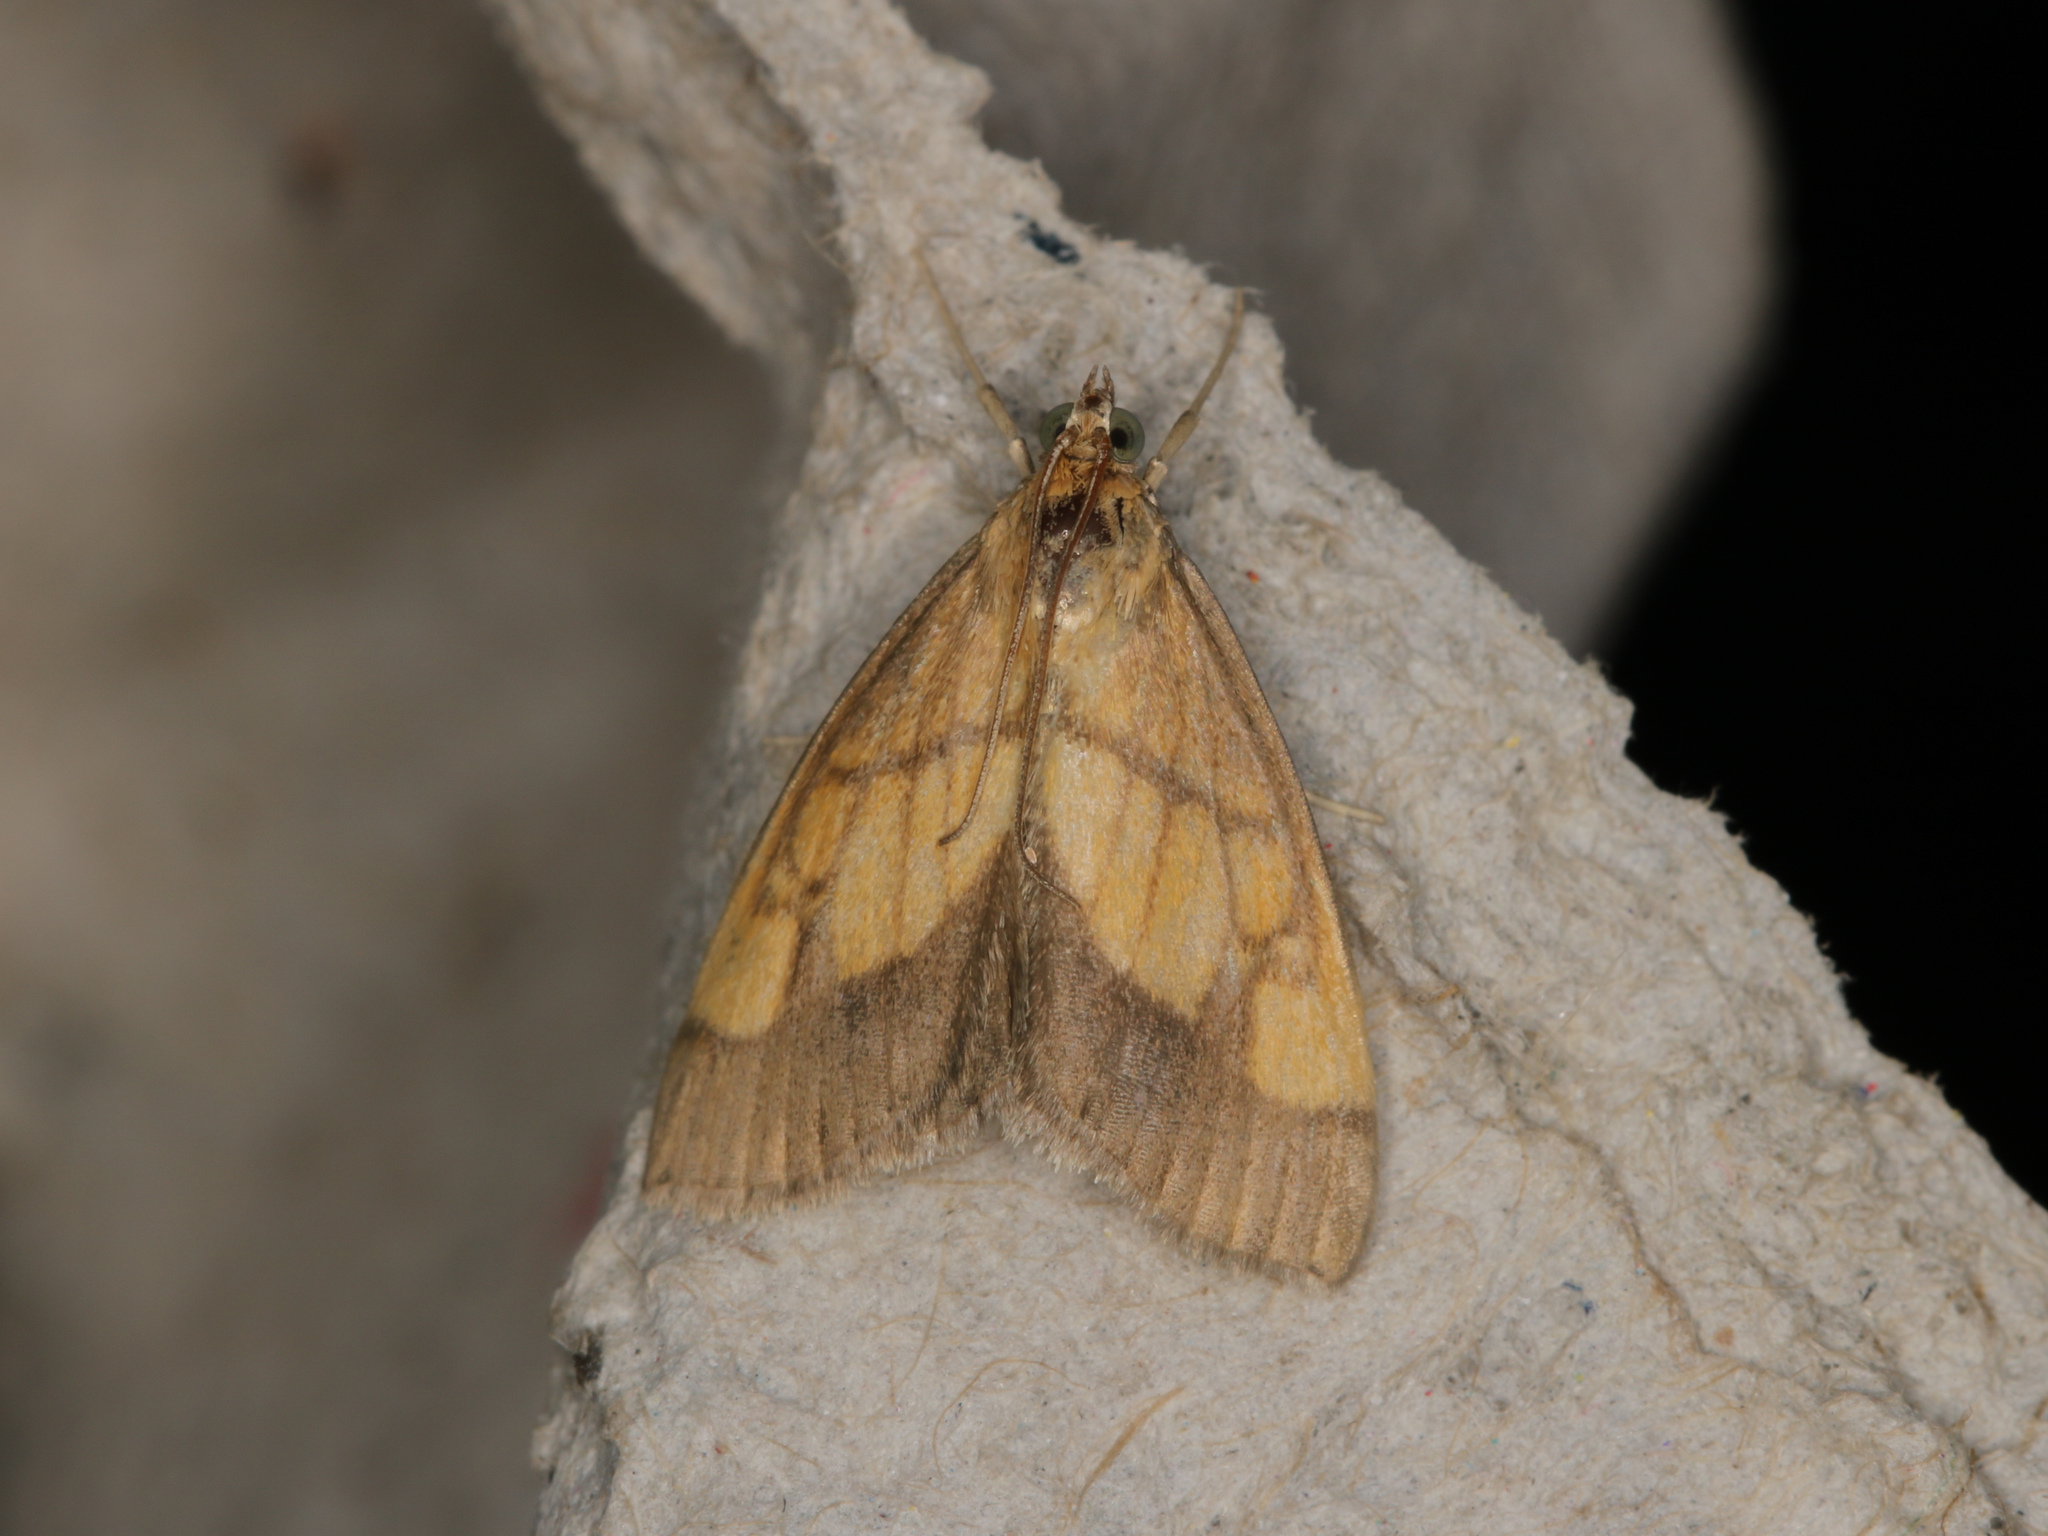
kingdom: Animalia
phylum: Arthropoda
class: Insecta
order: Lepidoptera
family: Crambidae
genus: Evergestis
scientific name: Evergestis limbata
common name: Dark bordered pearl
